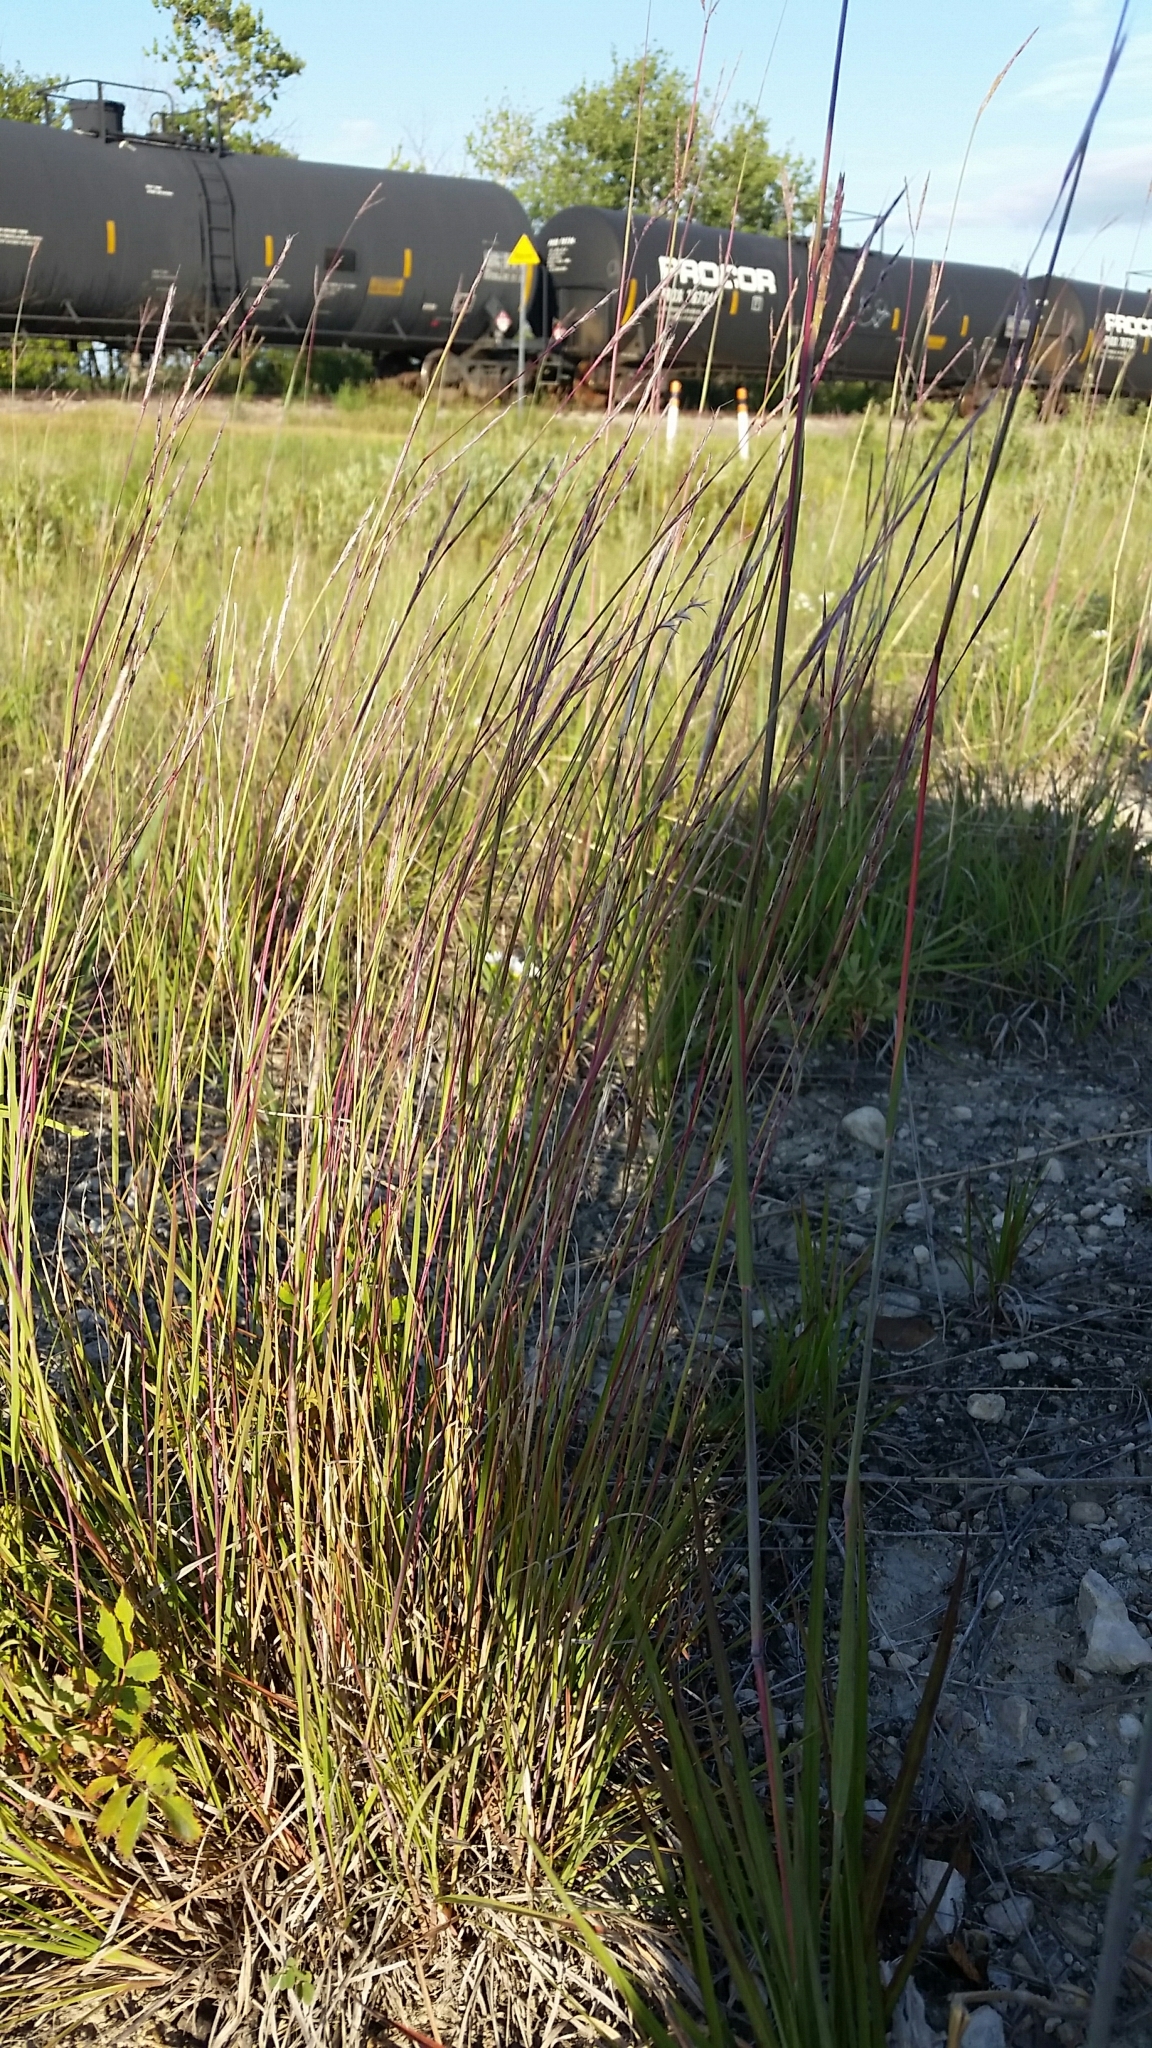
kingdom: Plantae
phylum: Tracheophyta
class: Liliopsida
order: Poales
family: Poaceae
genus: Schizachyrium
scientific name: Schizachyrium scoparium
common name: Little bluestem
